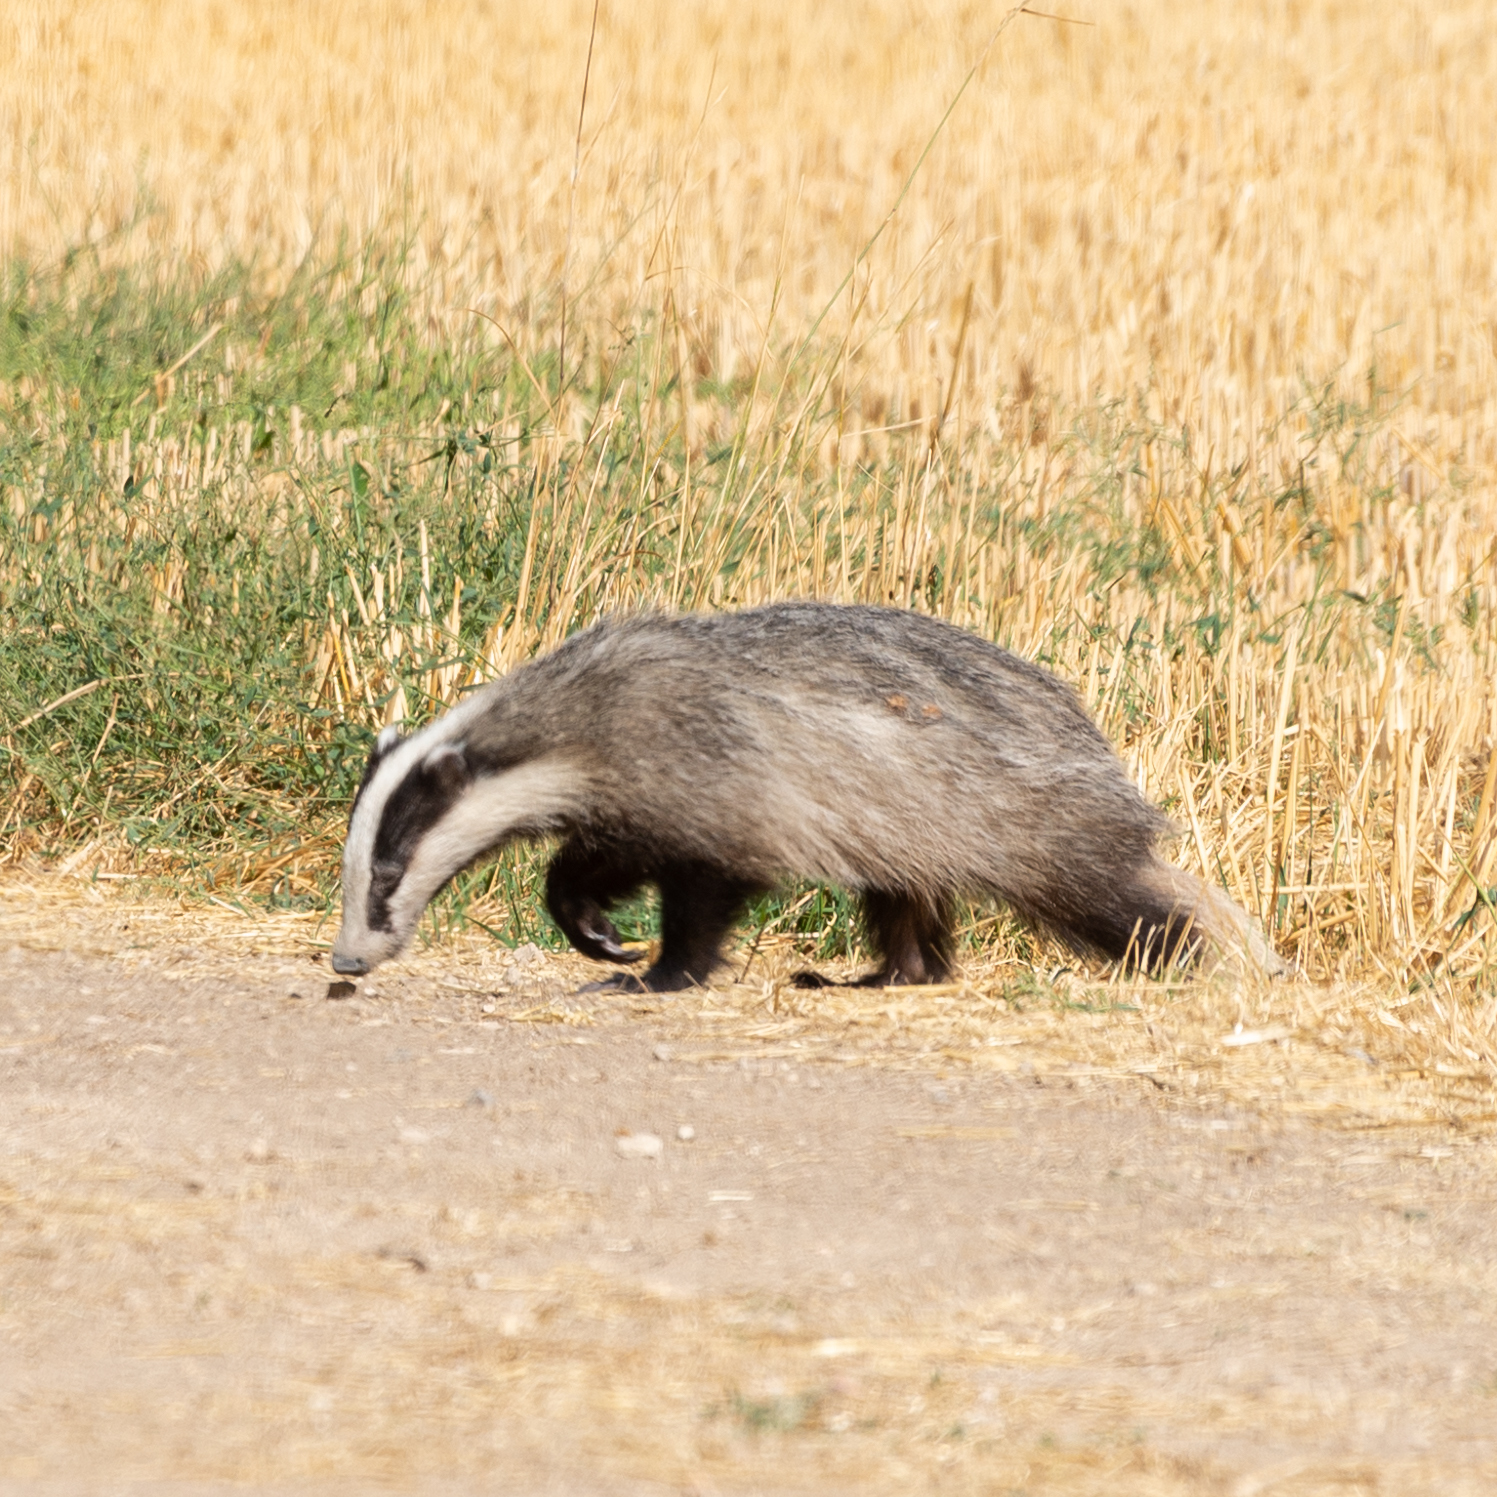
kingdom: Animalia
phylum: Chordata
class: Mammalia
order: Carnivora
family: Mustelidae
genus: Meles
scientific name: Meles meles
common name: Eurasian badger
